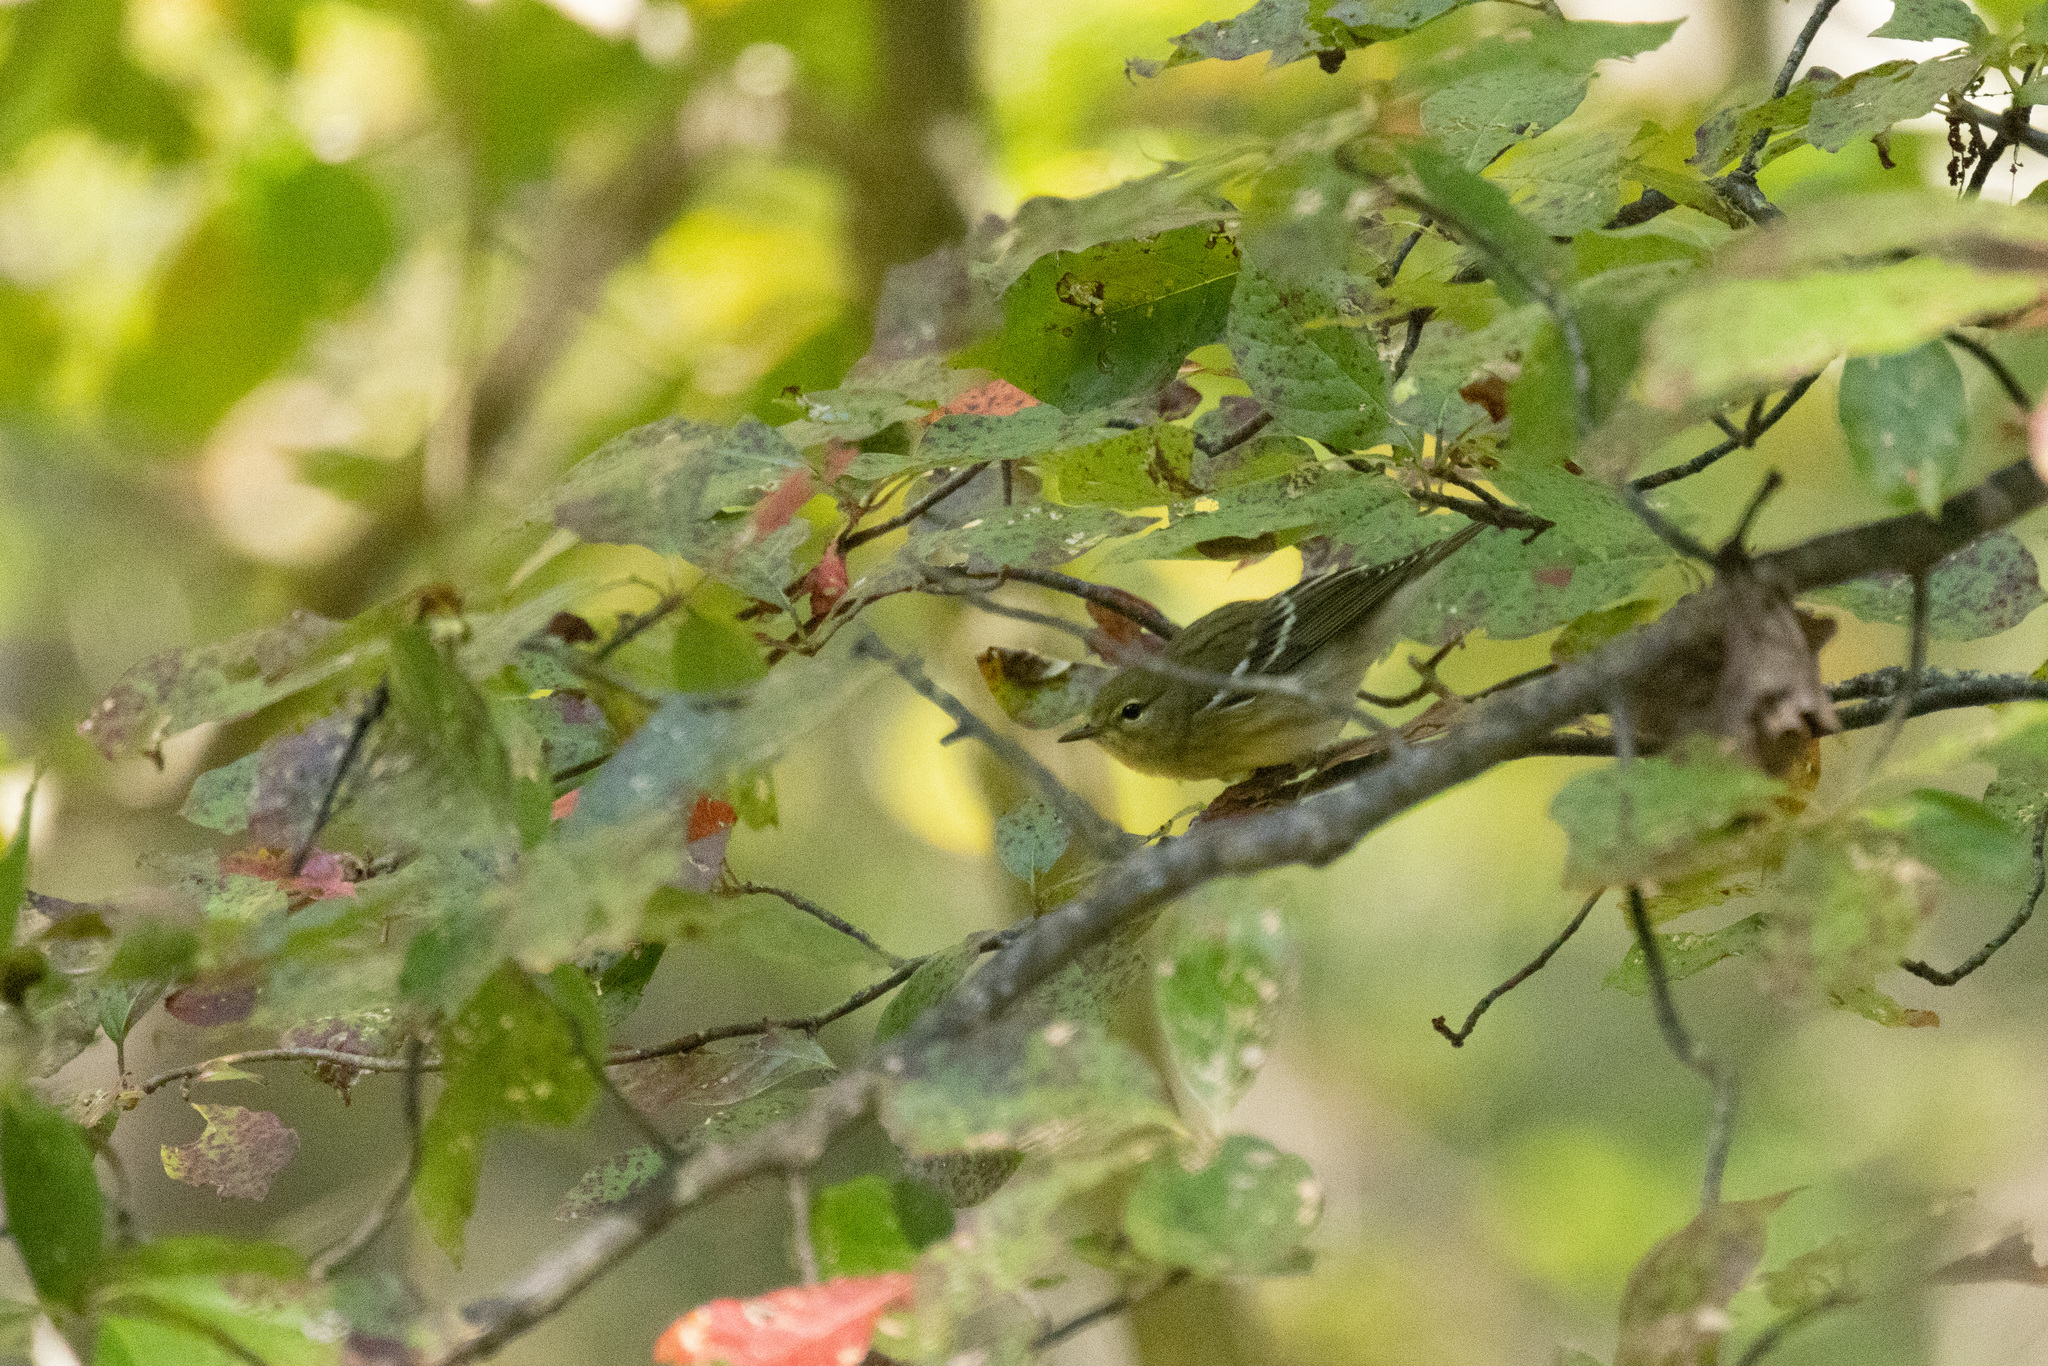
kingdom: Animalia
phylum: Chordata
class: Aves
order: Passeriformes
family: Parulidae
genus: Setophaga
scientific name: Setophaga striata
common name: Blackpoll warbler
